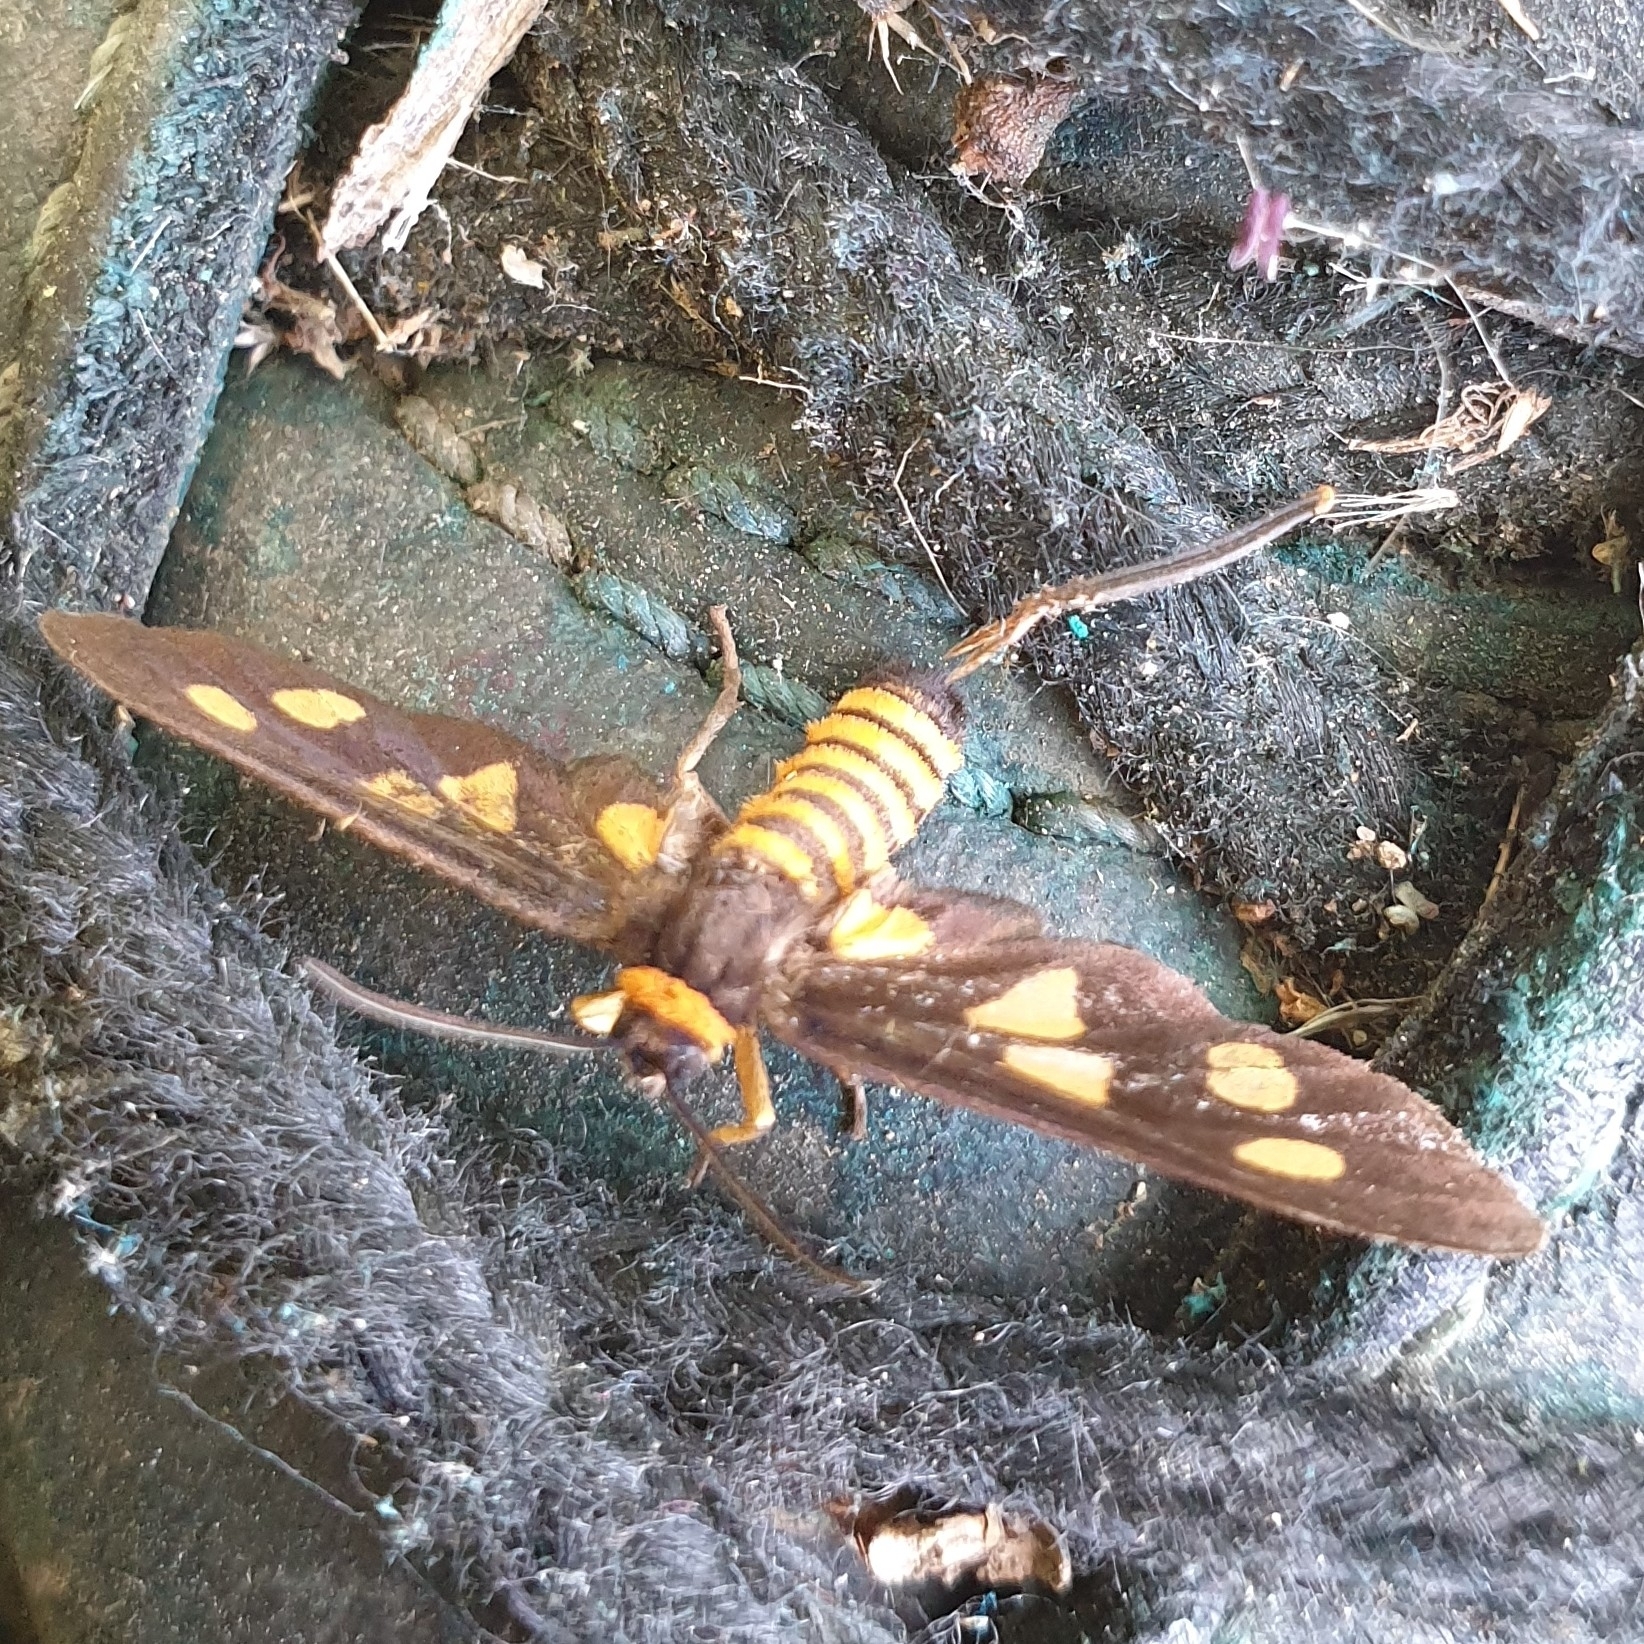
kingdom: Animalia
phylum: Arthropoda
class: Insecta
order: Lepidoptera
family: Erebidae
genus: Eressa
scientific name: Eressa angustipenna
